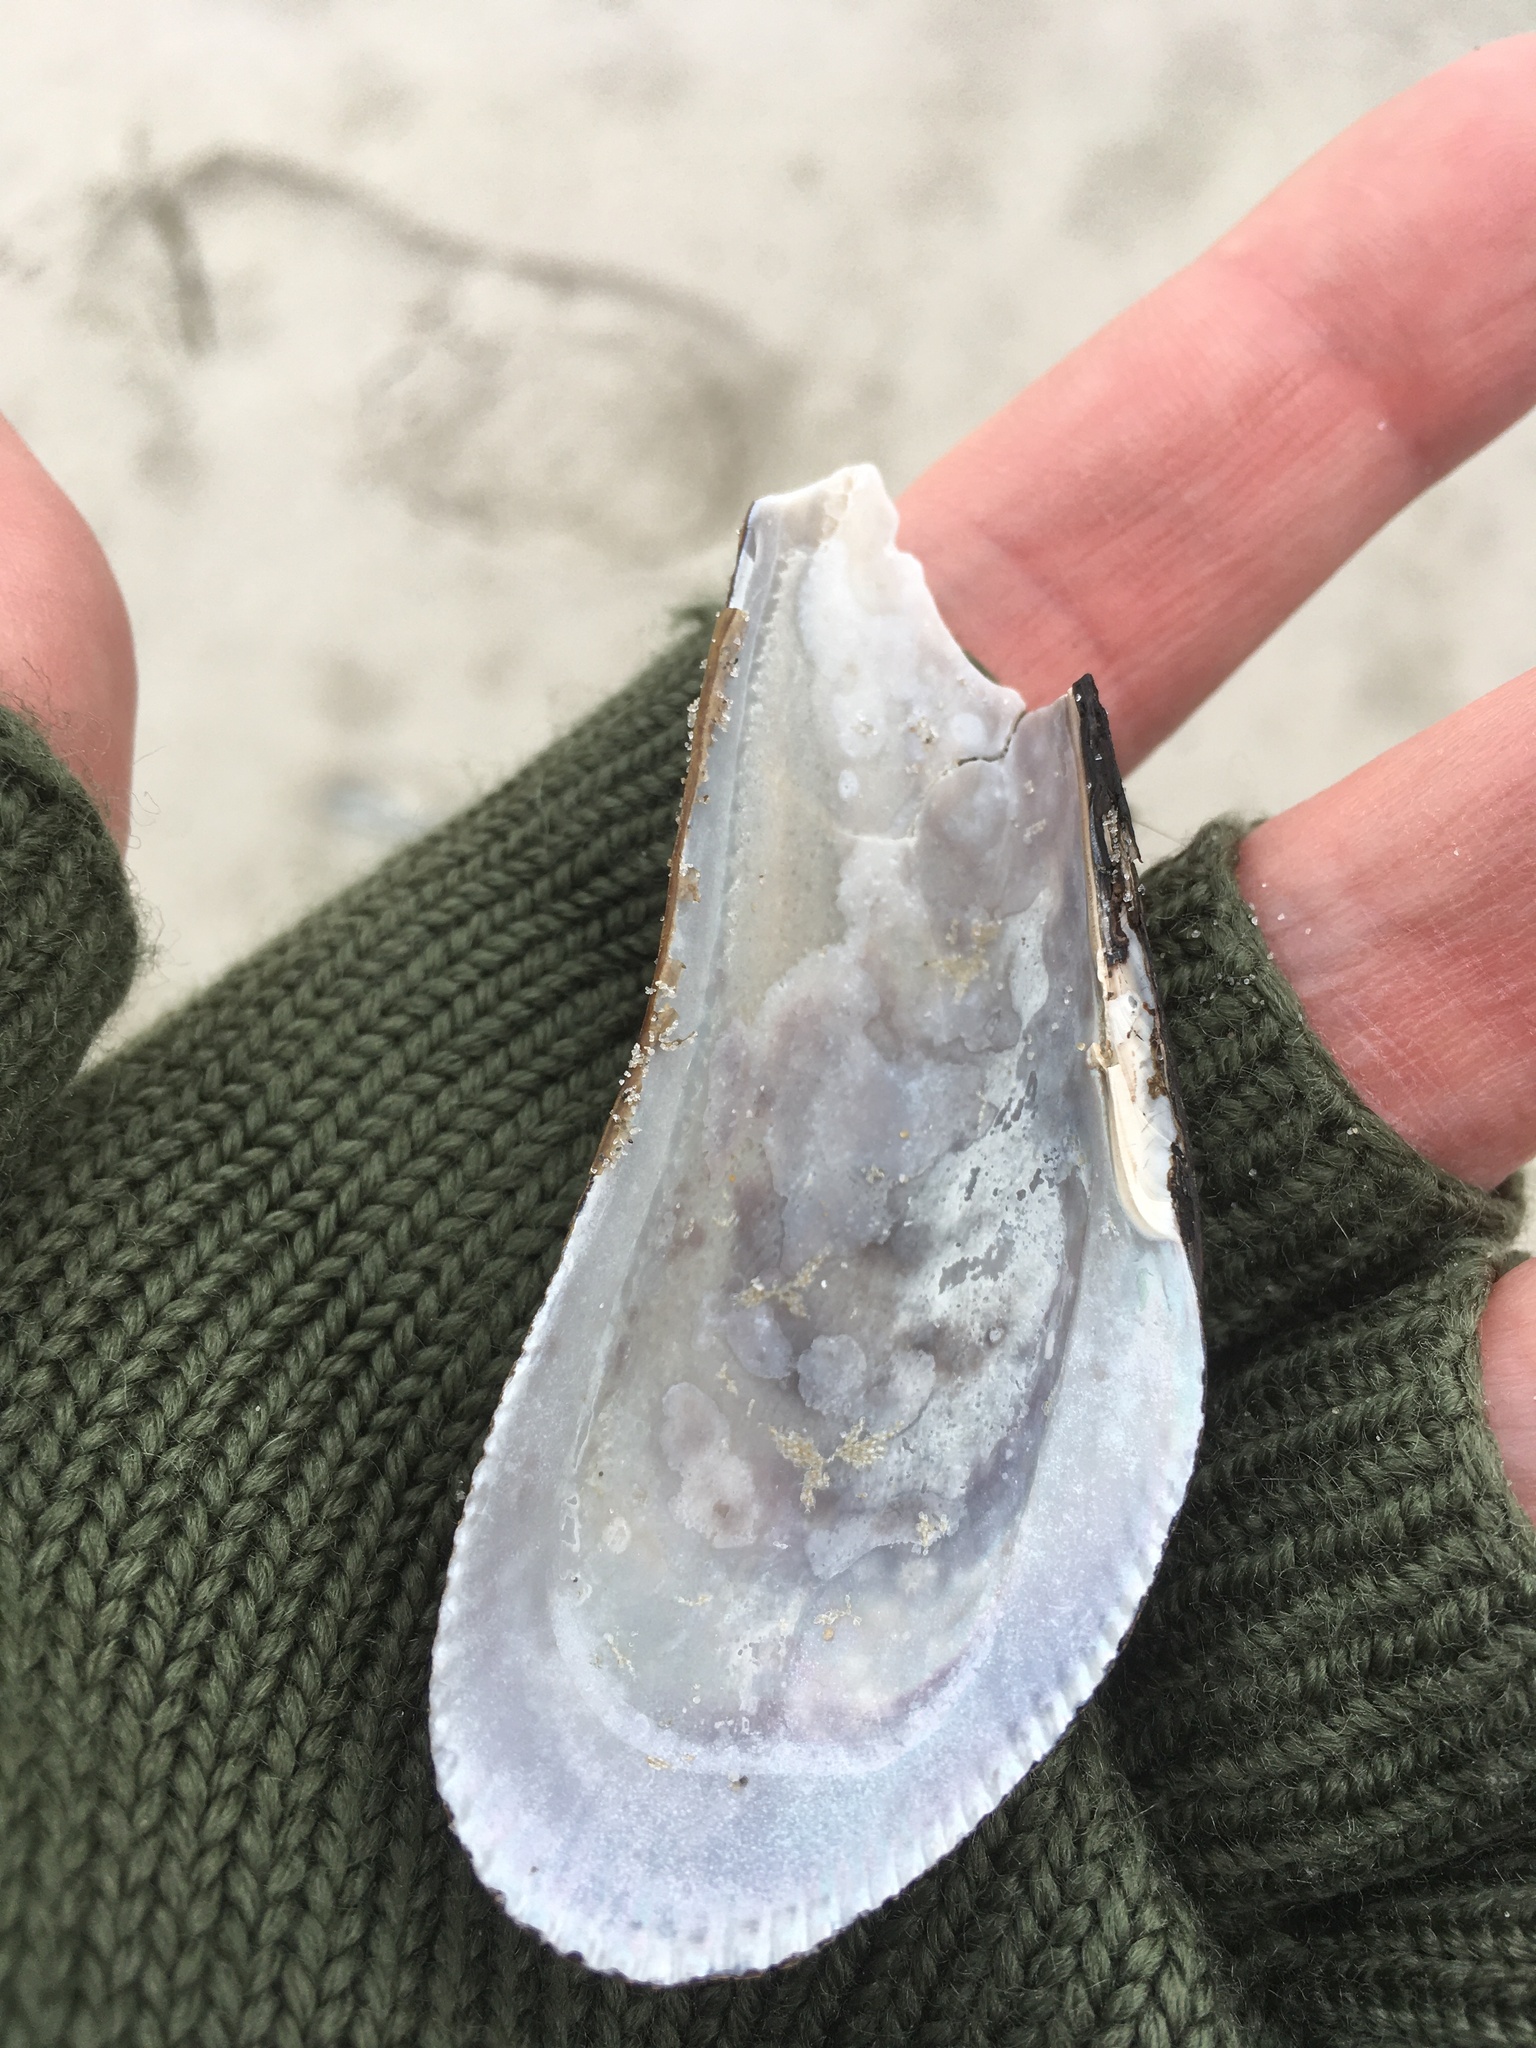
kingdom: Animalia
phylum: Mollusca
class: Bivalvia
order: Mytilida
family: Mytilidae
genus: Geukensia
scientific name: Geukensia demissa
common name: Ribbed mussel
